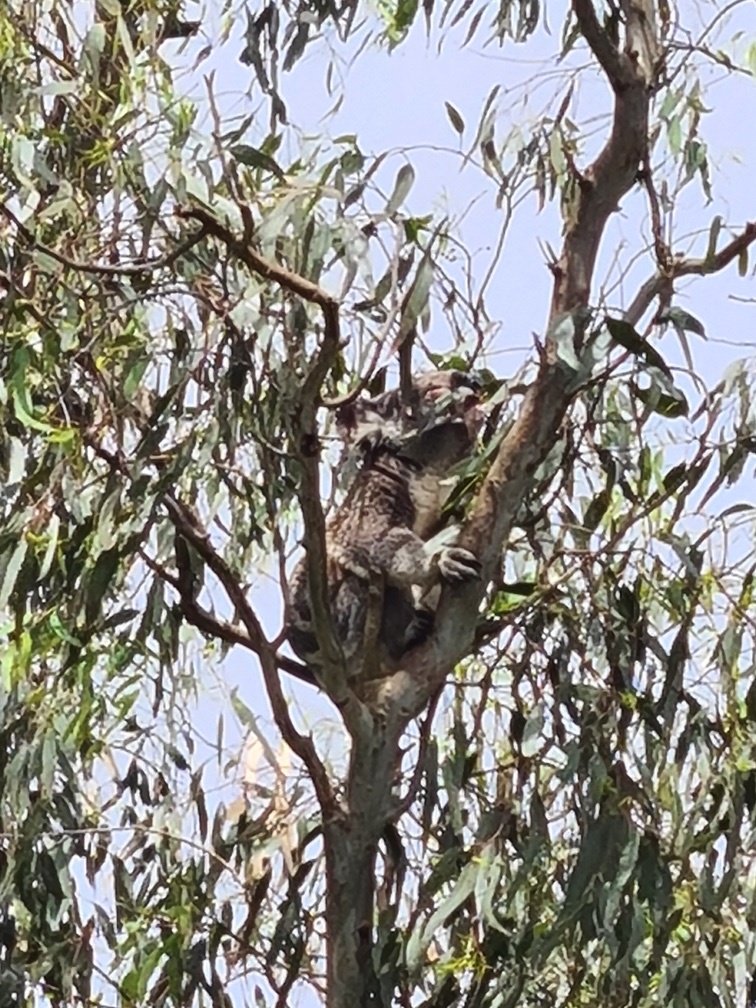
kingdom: Animalia
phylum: Chordata
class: Mammalia
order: Diprotodontia
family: Phascolarctidae
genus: Phascolarctos
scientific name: Phascolarctos cinereus
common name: Koala
